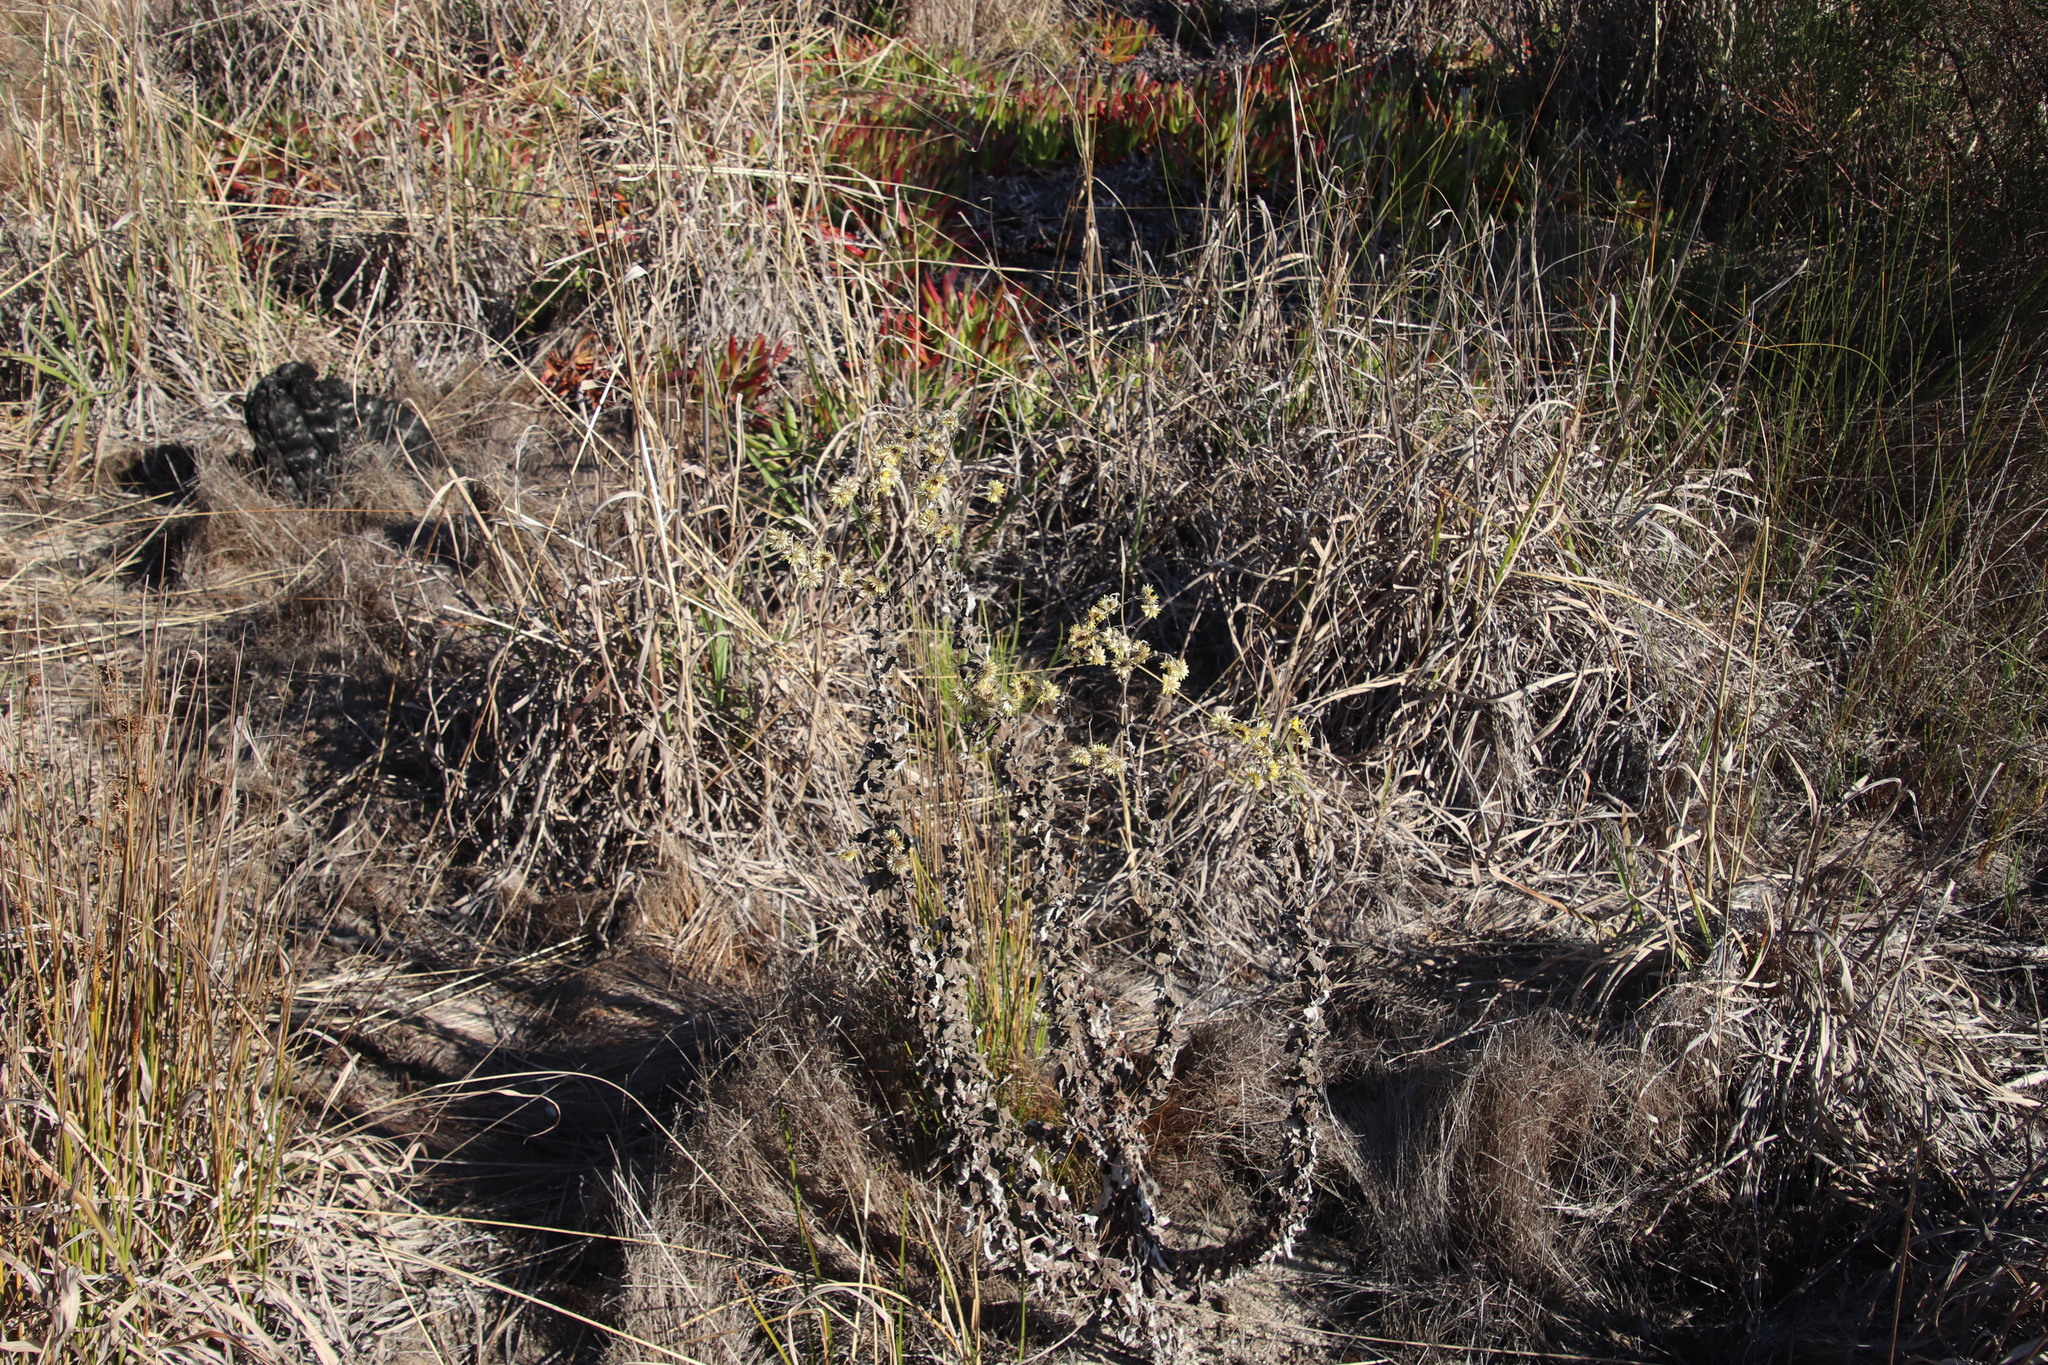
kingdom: Plantae
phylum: Tracheophyta
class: Magnoliopsida
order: Asterales
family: Asteraceae
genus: Helichrysum
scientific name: Helichrysum foetidum
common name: Stinking everlasting
